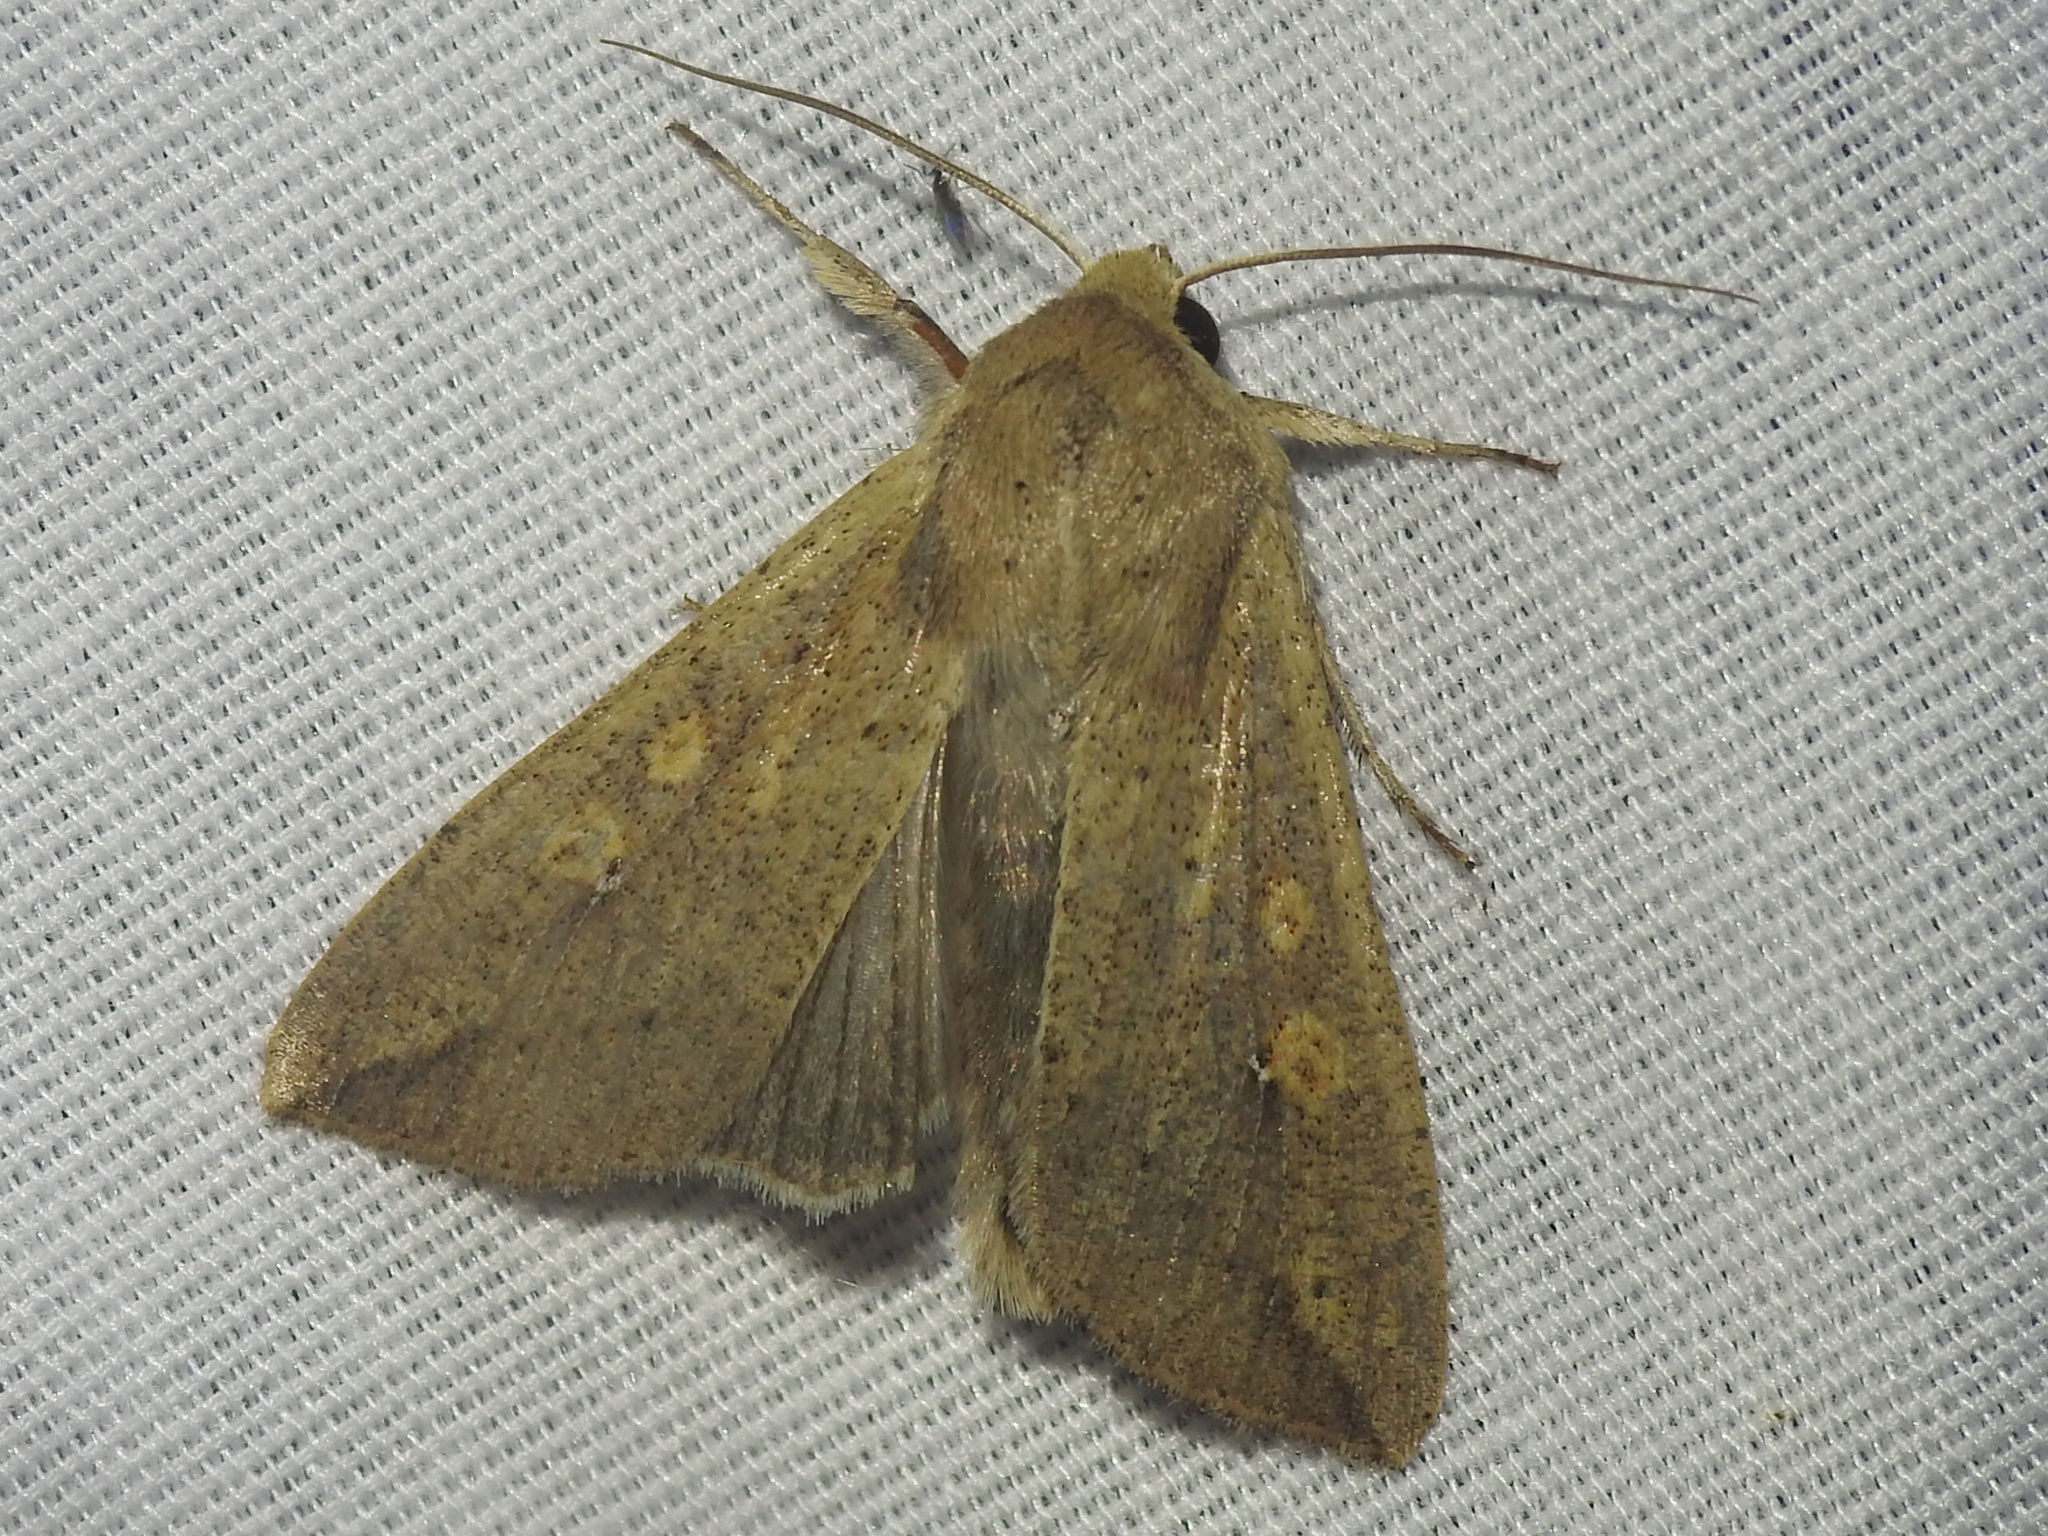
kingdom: Animalia
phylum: Arthropoda
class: Insecta
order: Lepidoptera
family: Noctuidae
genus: Mythimna
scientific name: Mythimna unipuncta
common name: White-speck
